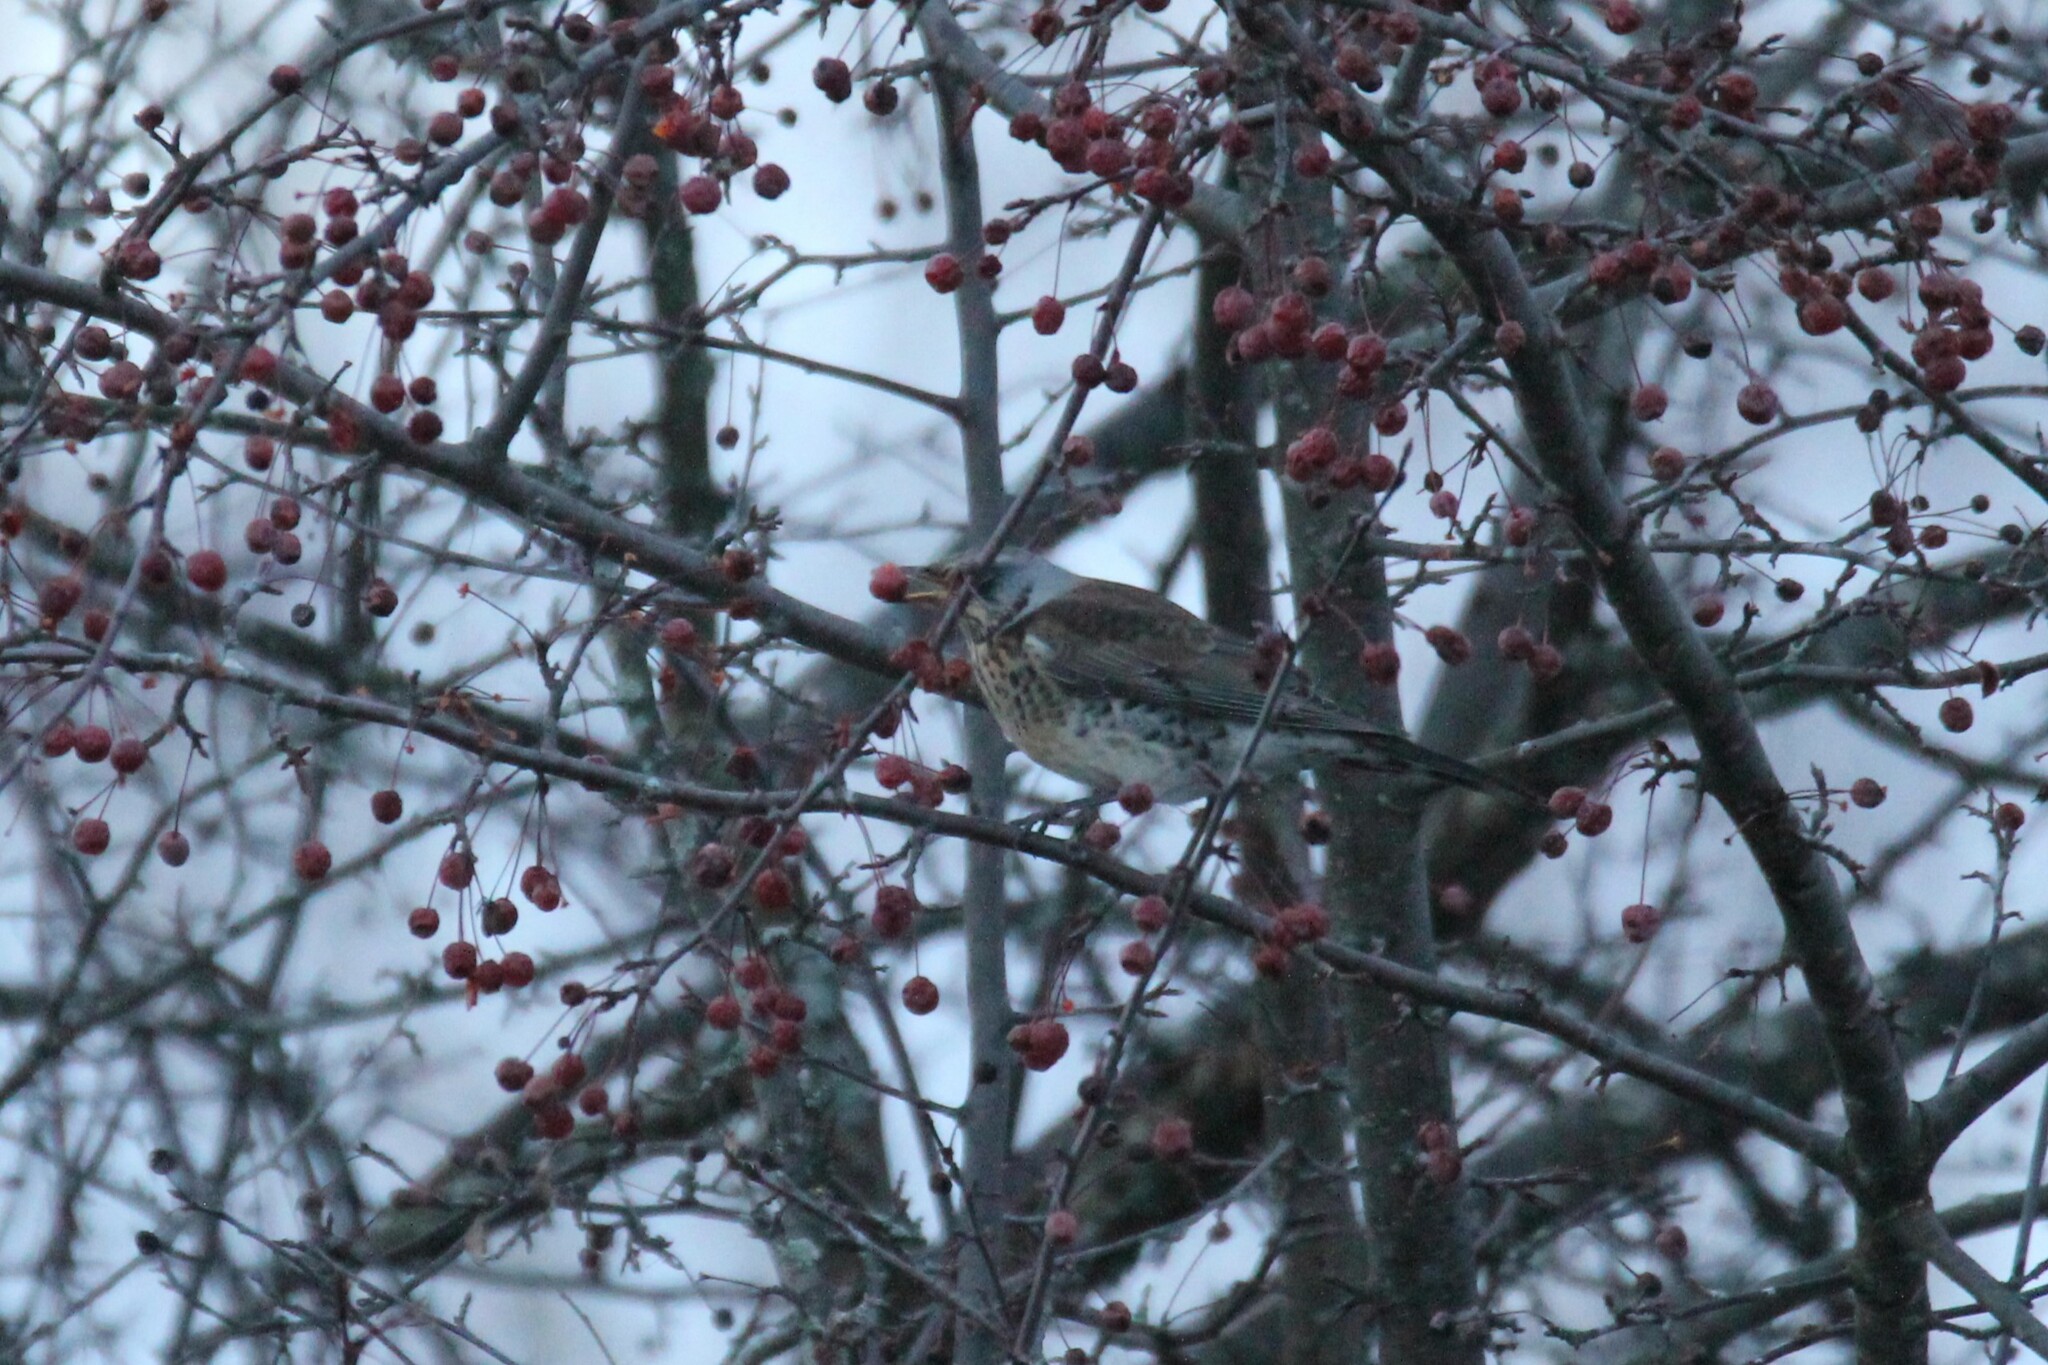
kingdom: Animalia
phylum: Chordata
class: Aves
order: Passeriformes
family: Turdidae
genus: Turdus
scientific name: Turdus pilaris
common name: Fieldfare
